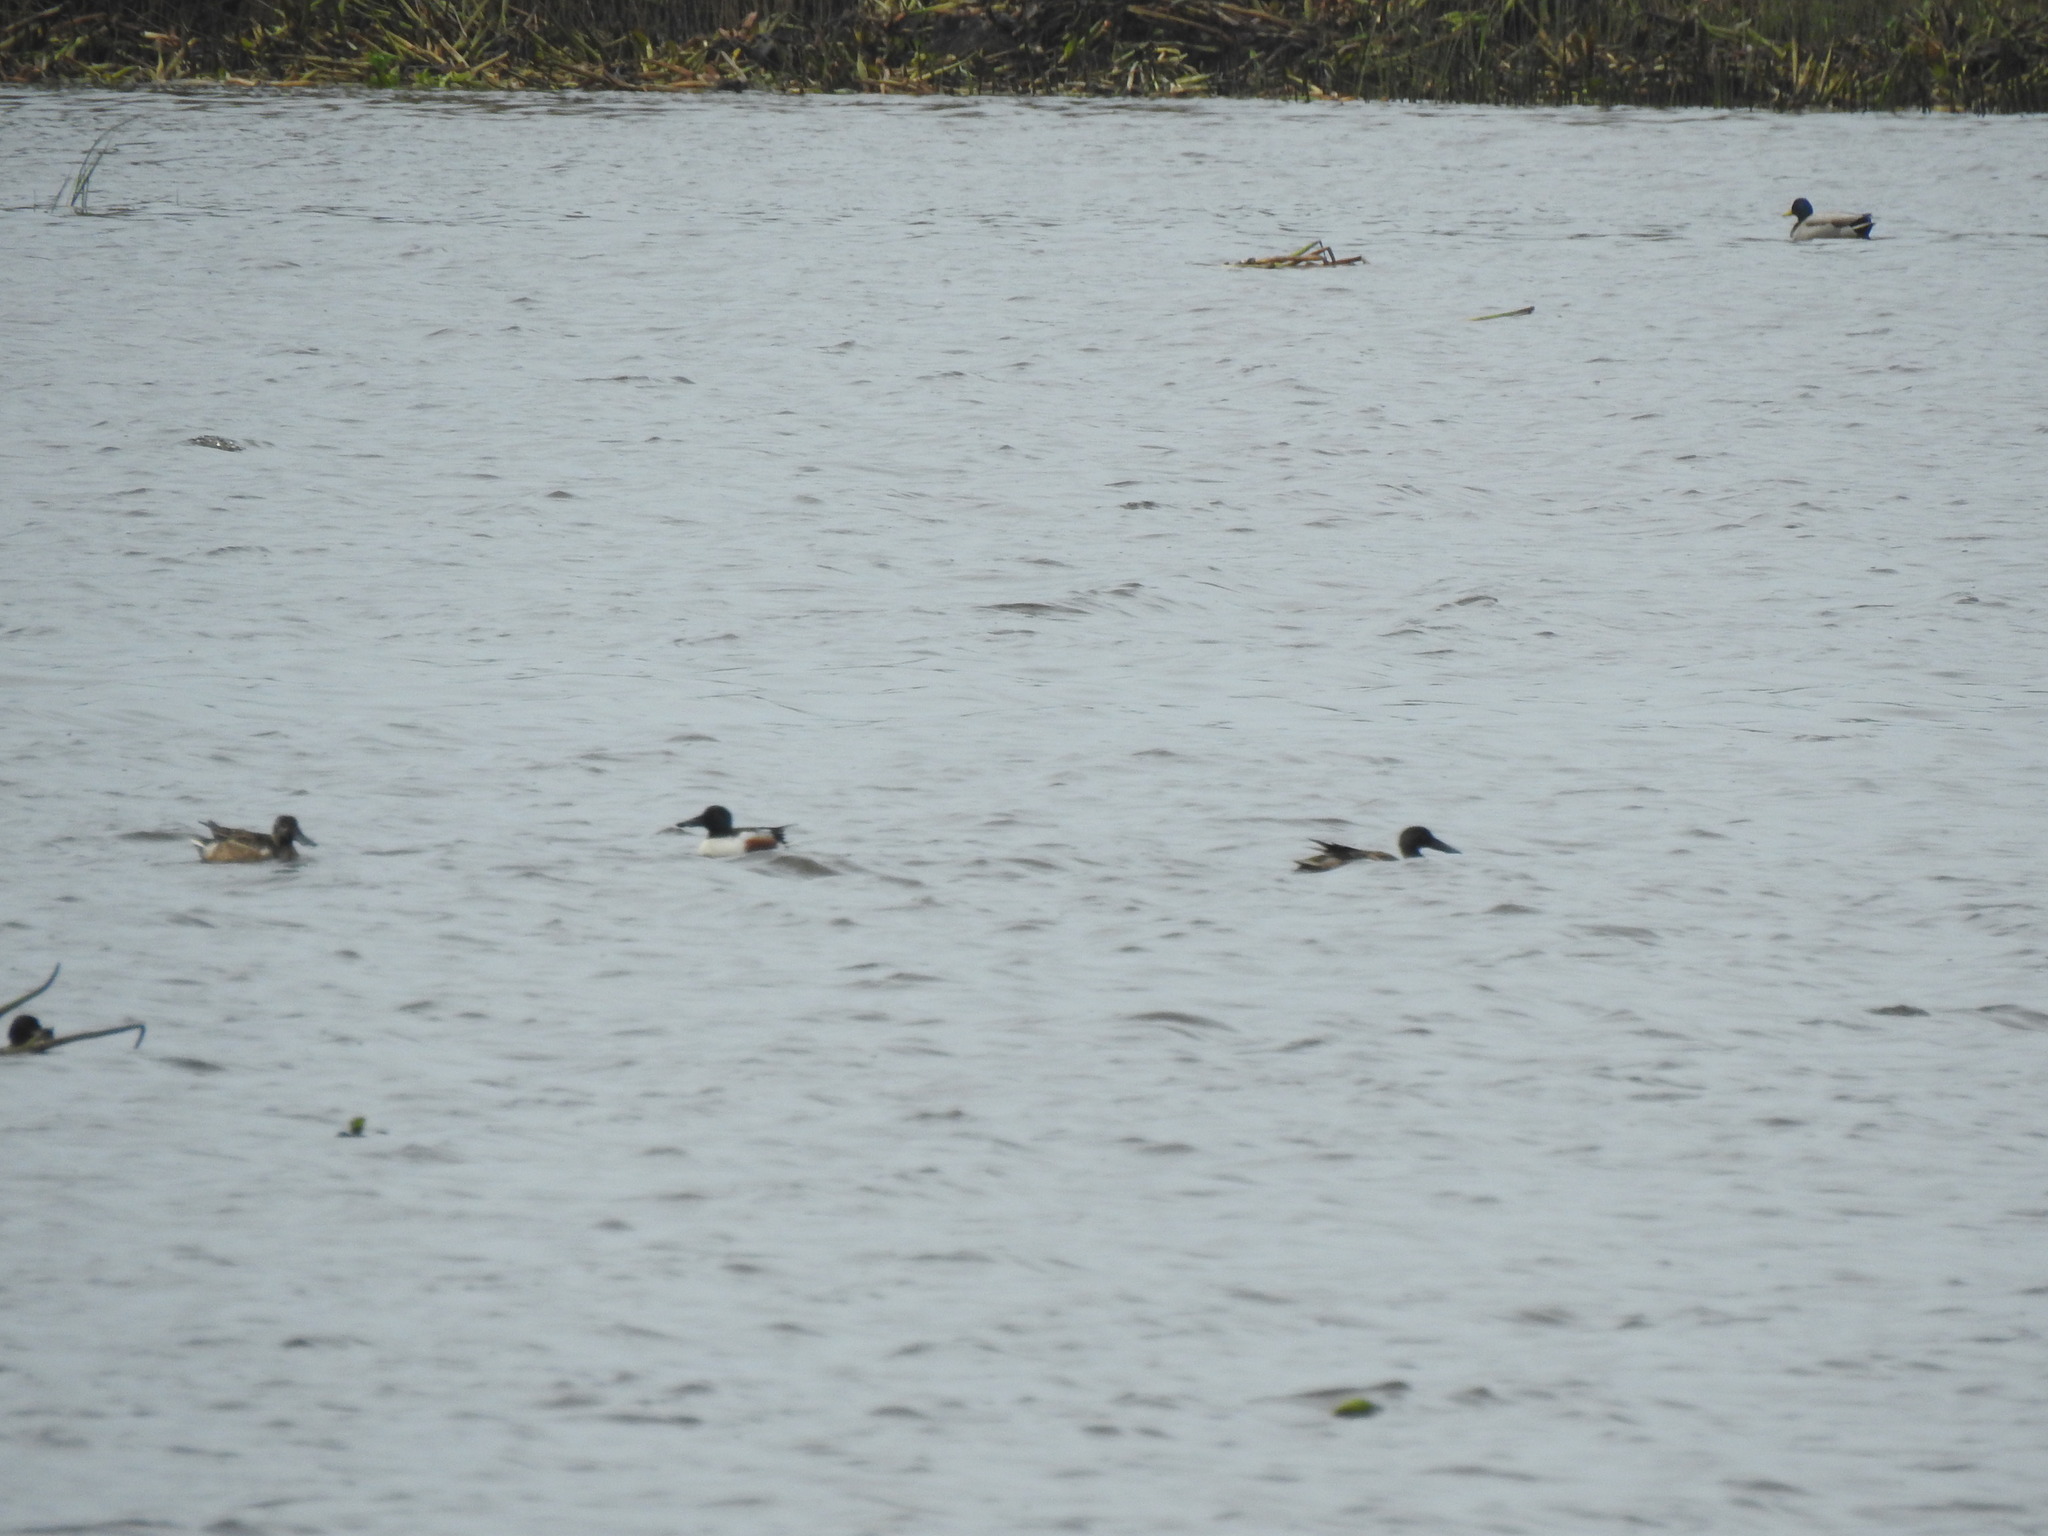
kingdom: Animalia
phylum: Chordata
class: Aves
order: Anseriformes
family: Anatidae
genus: Spatula
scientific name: Spatula clypeata
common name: Northern shoveler
